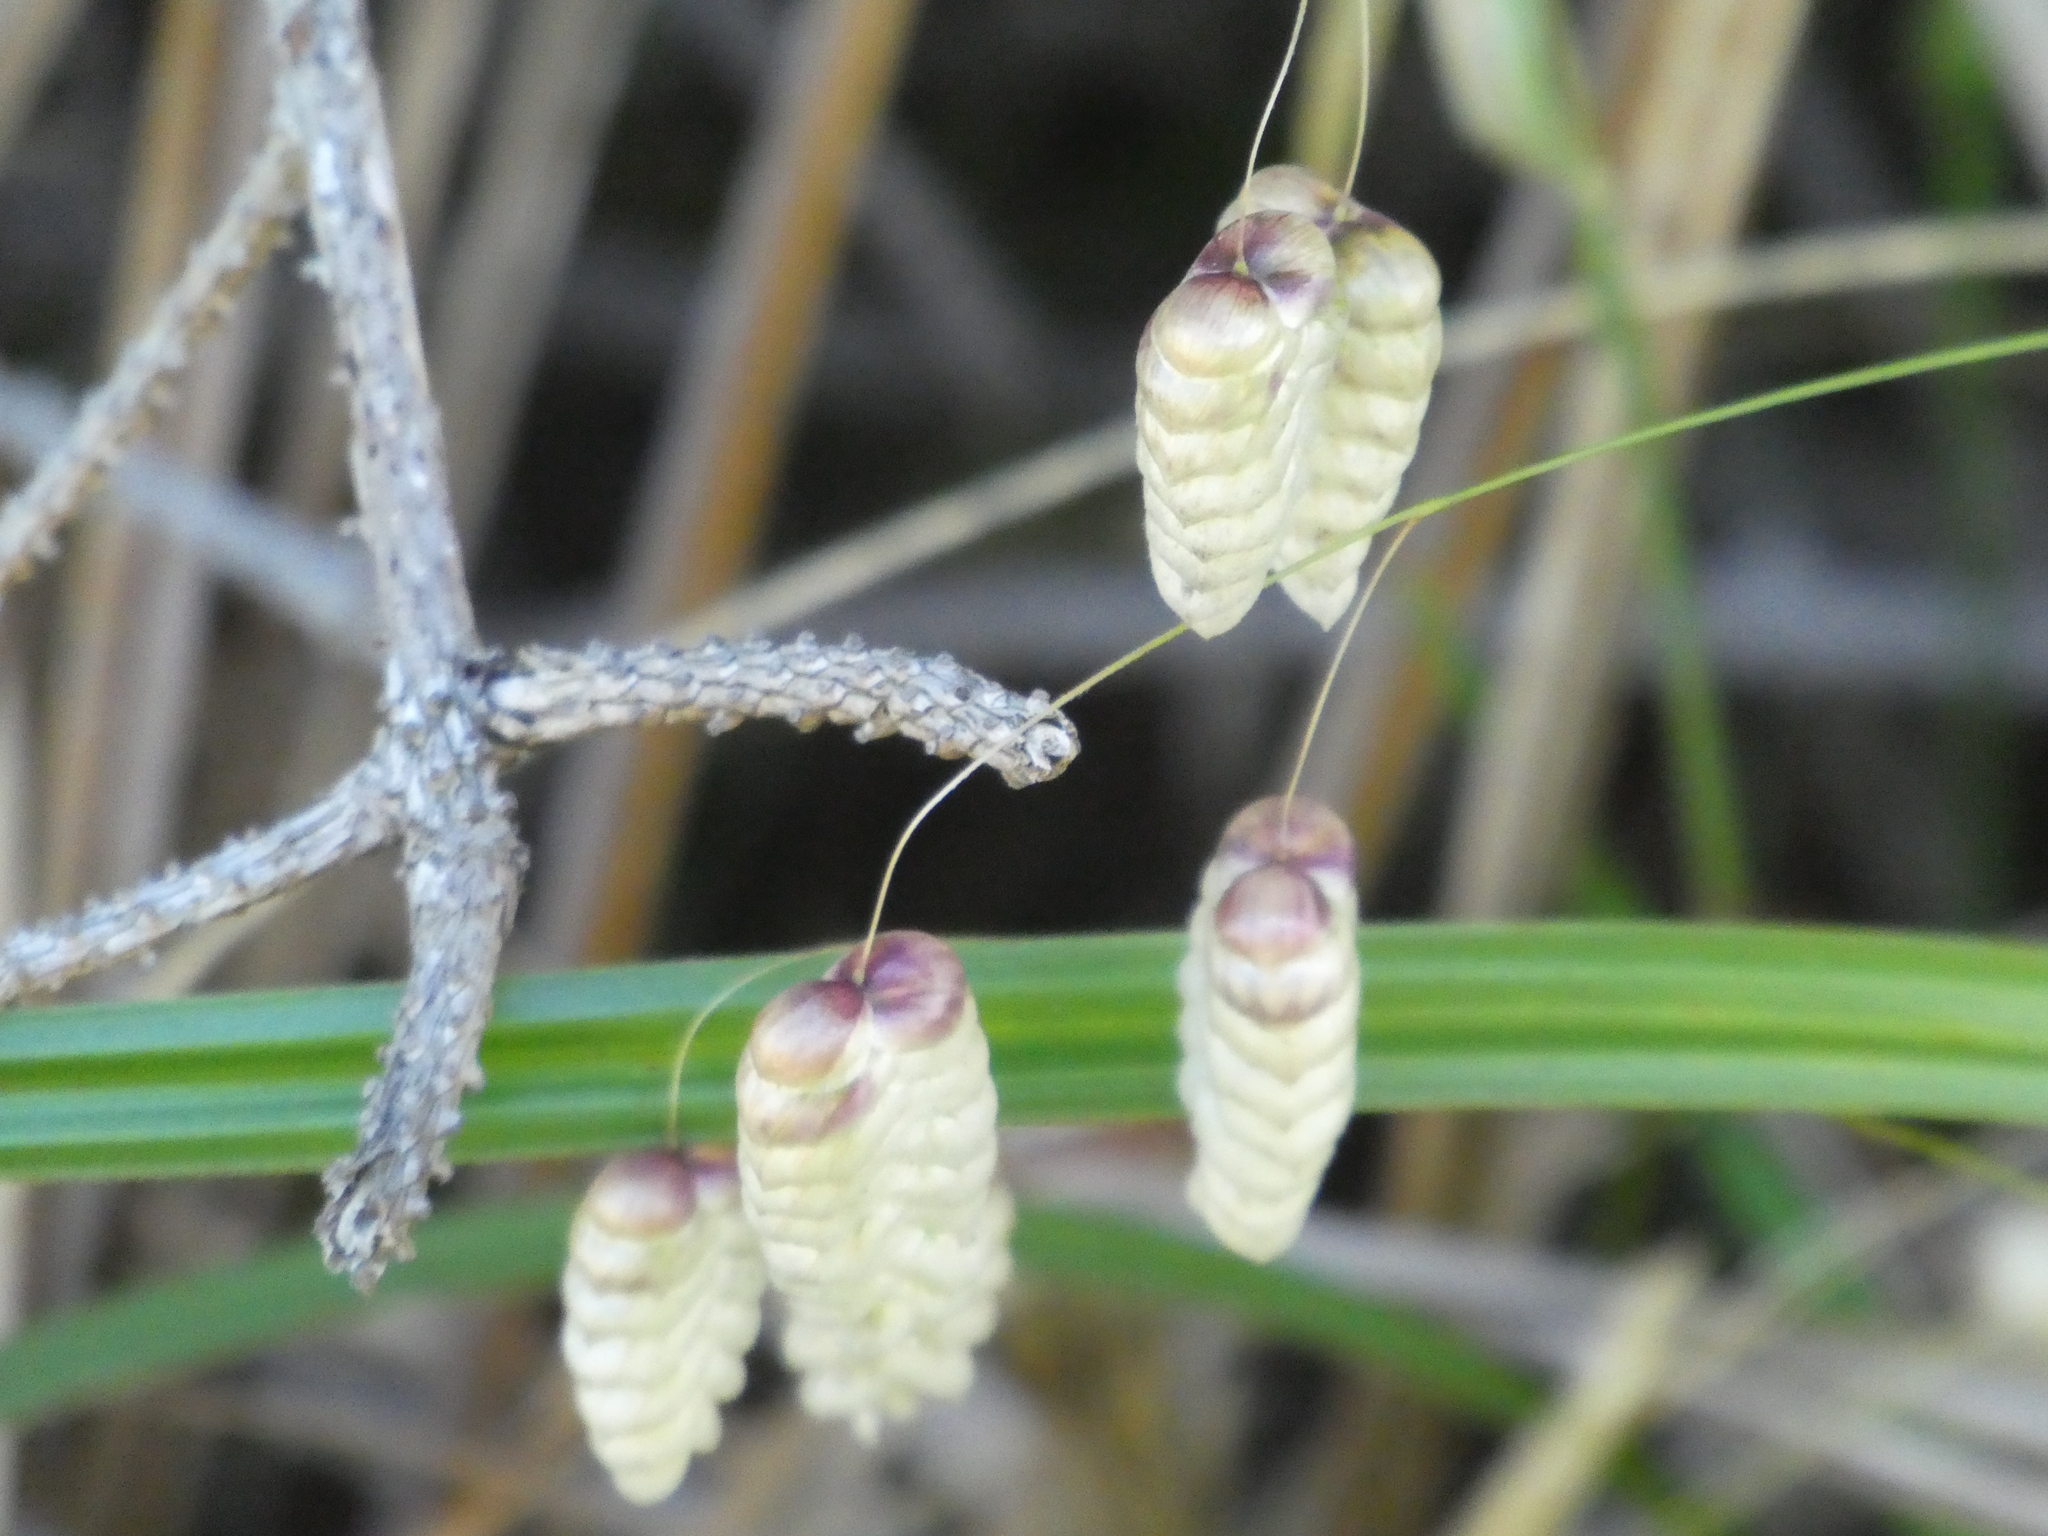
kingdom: Plantae
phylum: Tracheophyta
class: Liliopsida
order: Poales
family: Poaceae
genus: Briza
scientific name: Briza maxima
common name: Big quakinggrass
